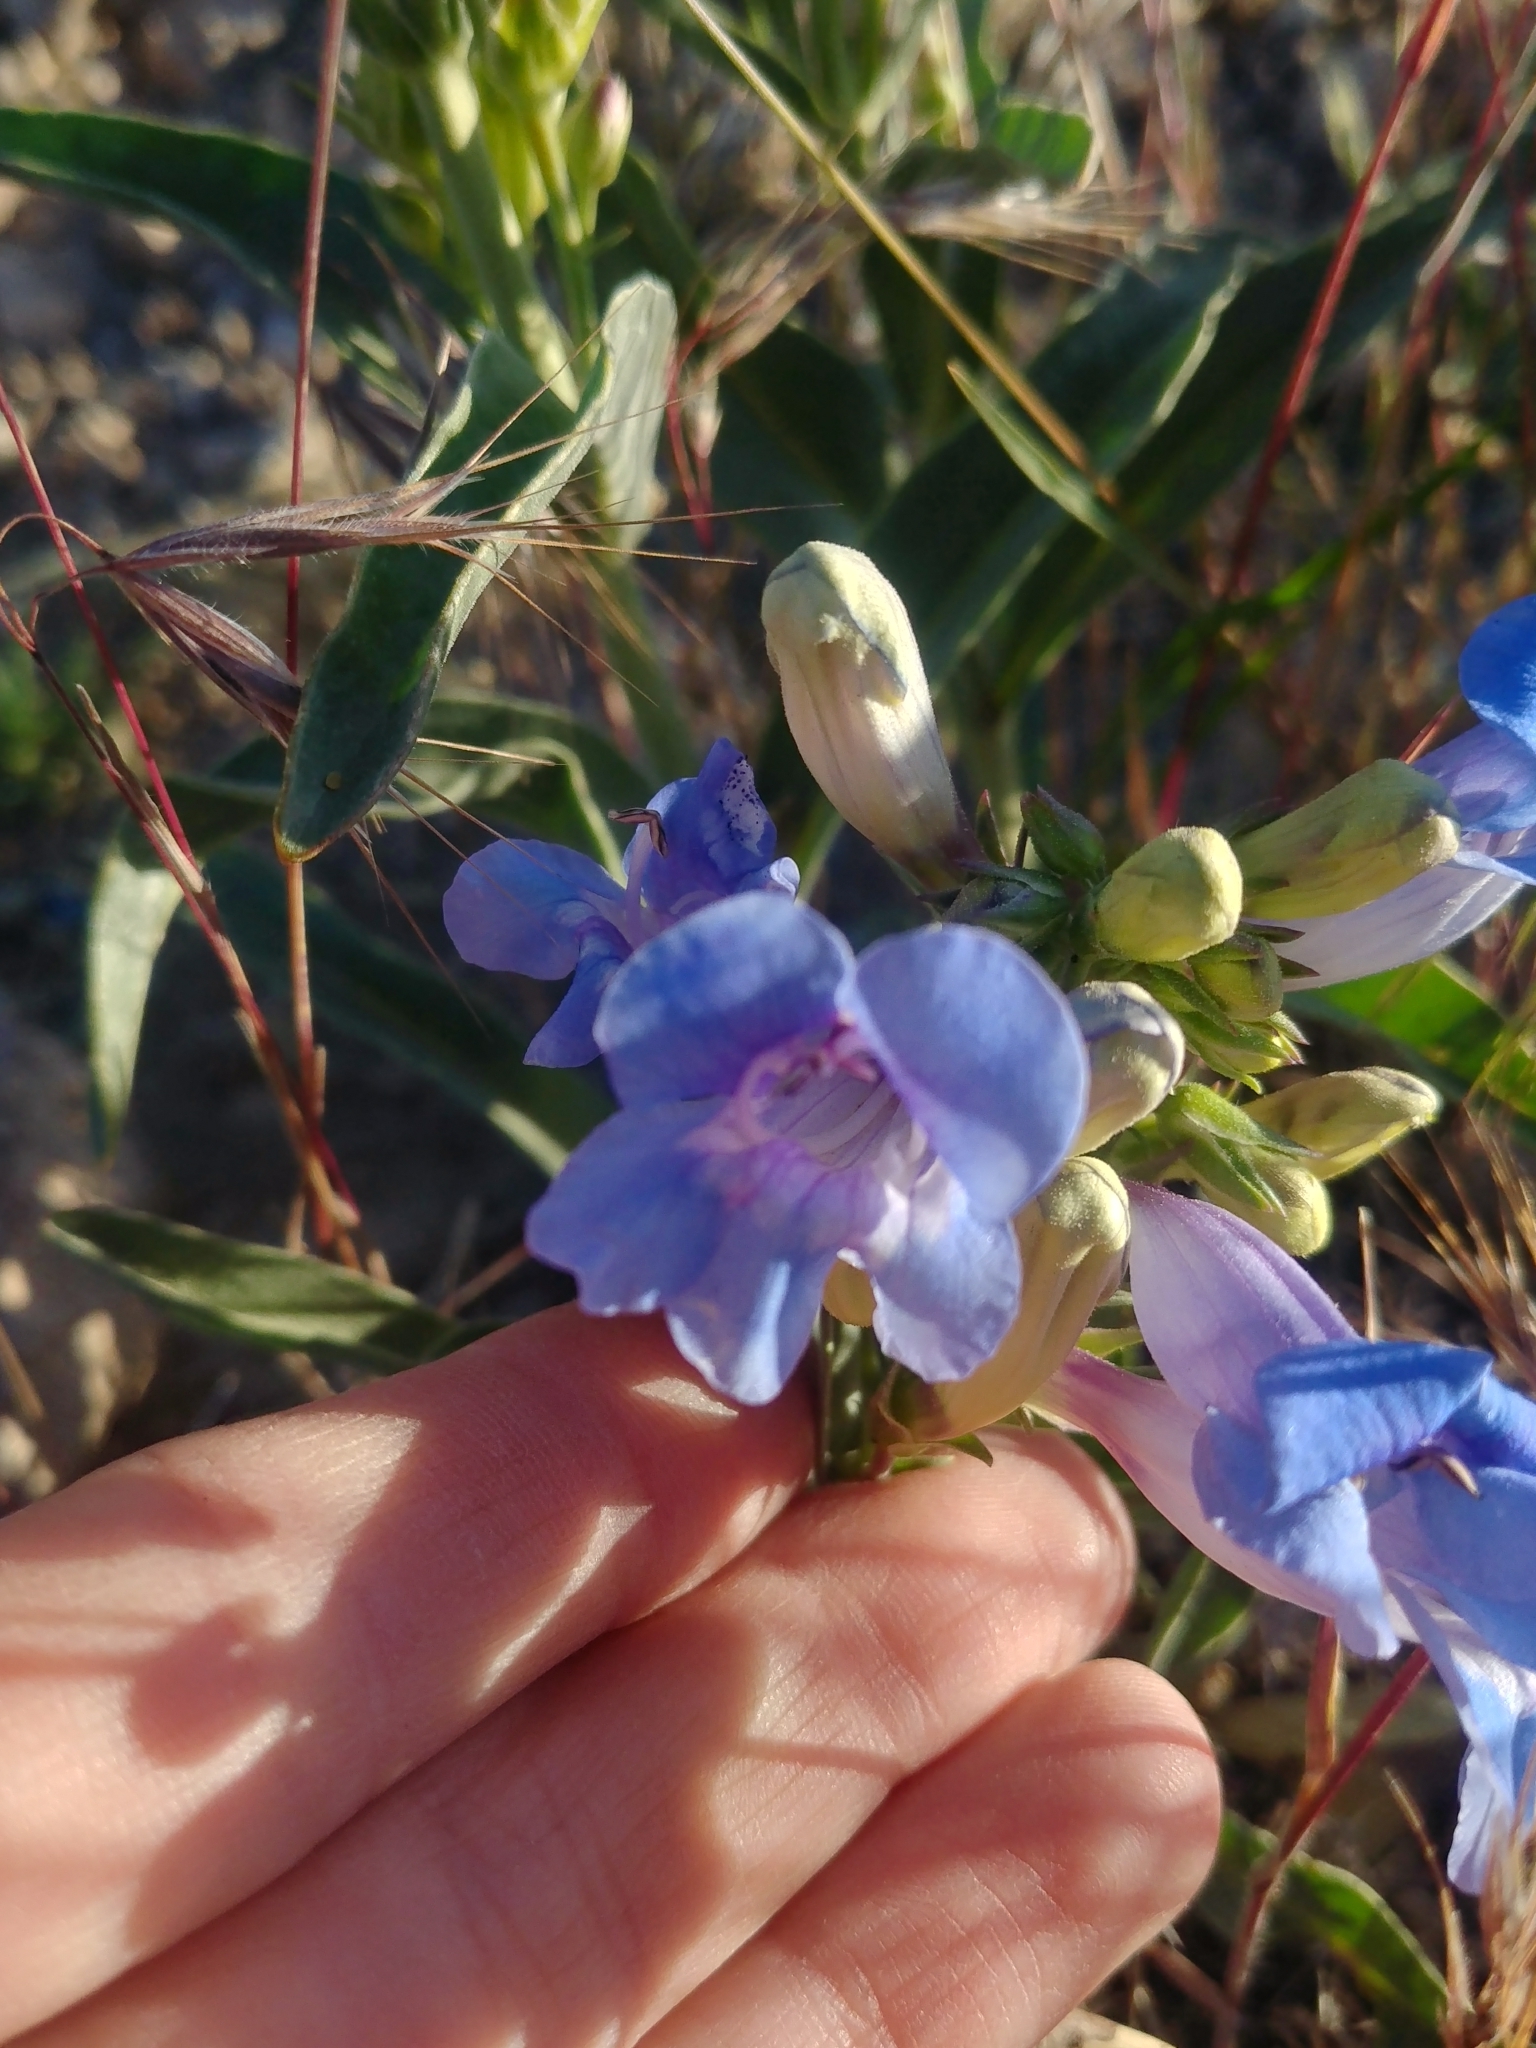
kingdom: Plantae
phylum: Tracheophyta
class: Magnoliopsida
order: Lamiales
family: Plantaginaceae
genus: Penstemon
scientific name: Penstemon speciosus
